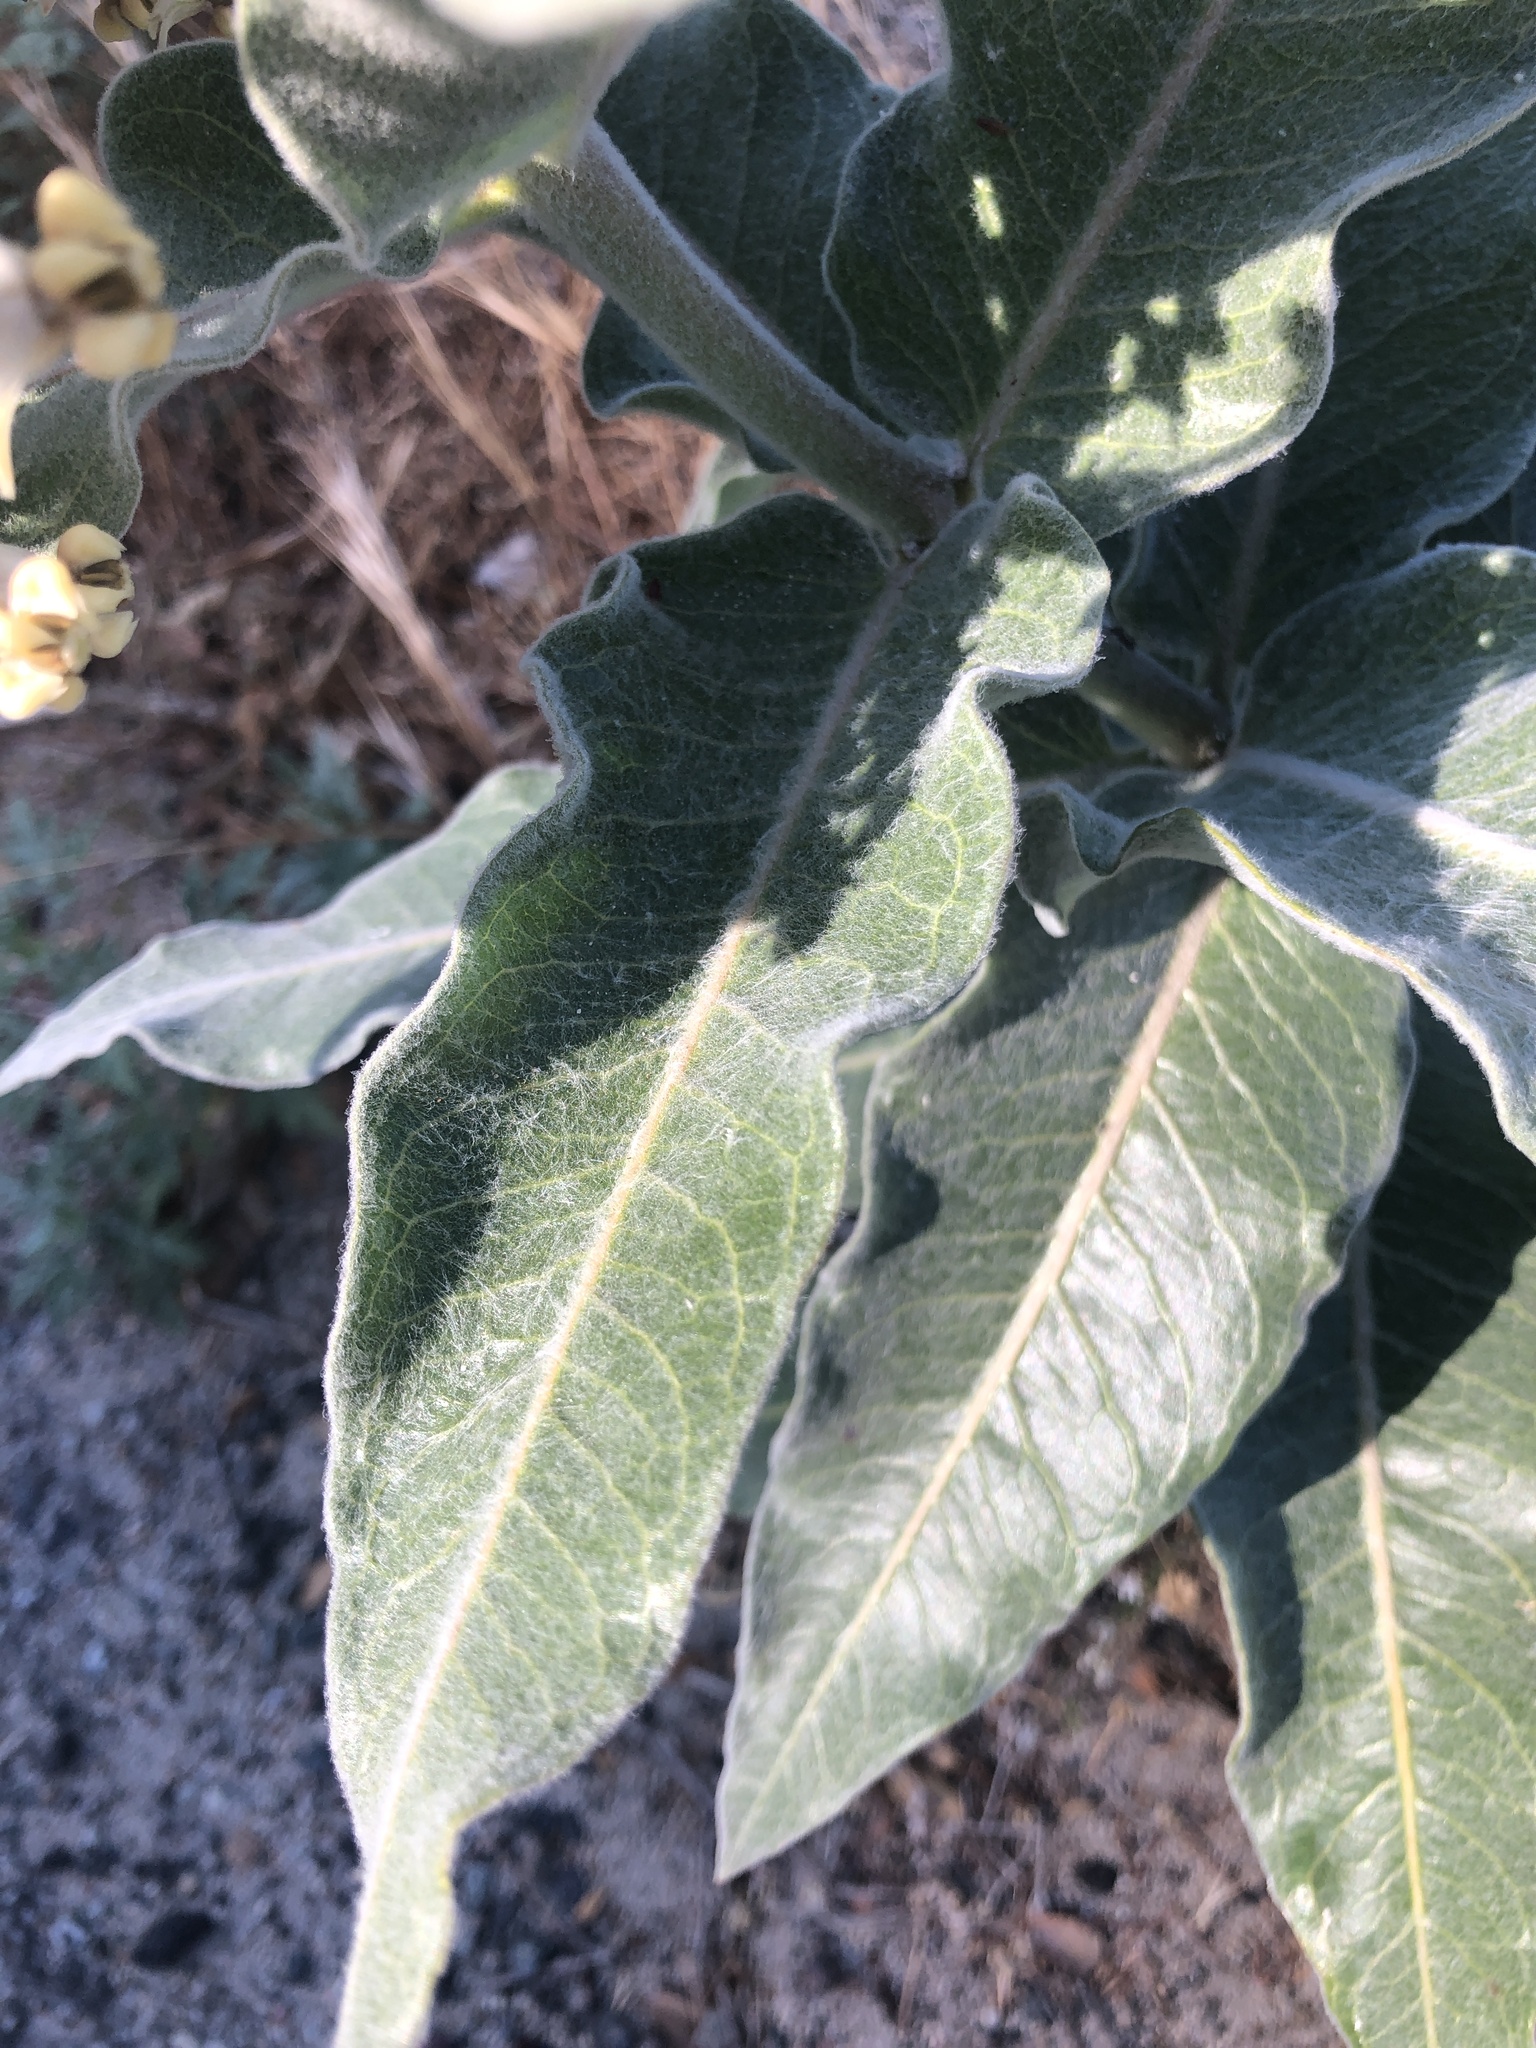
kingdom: Plantae
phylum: Tracheophyta
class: Magnoliopsida
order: Gentianales
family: Apocynaceae
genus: Asclepias
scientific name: Asclepias eriocarpa
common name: Indian milkweed
